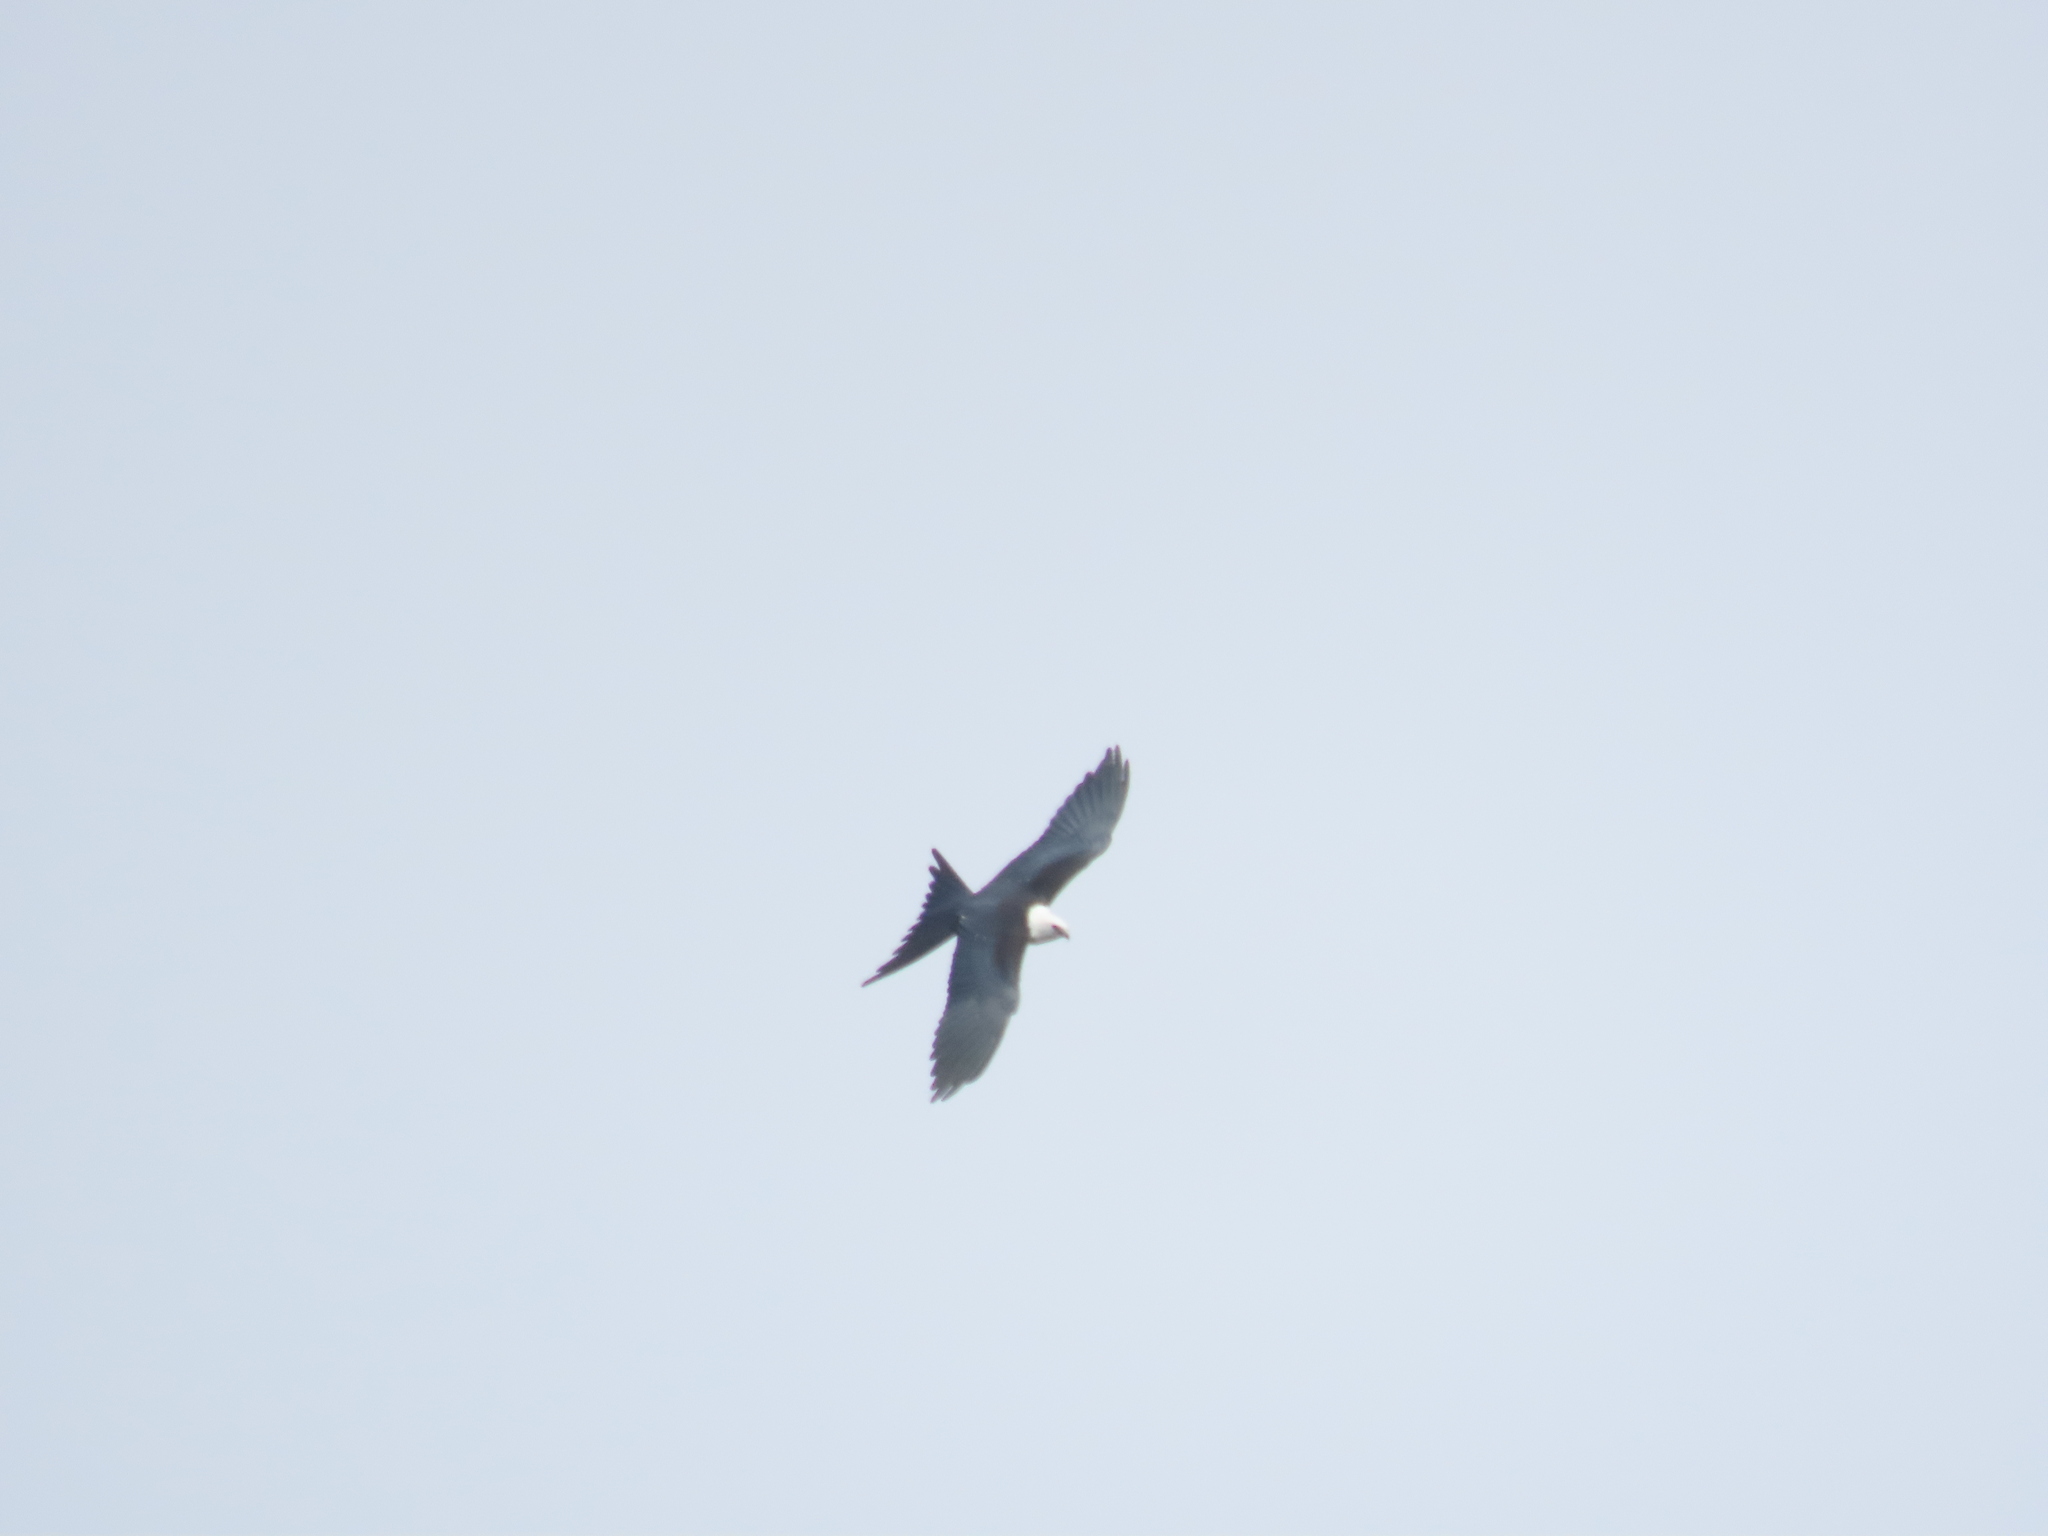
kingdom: Animalia
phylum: Chordata
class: Aves
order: Accipitriformes
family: Accipitridae
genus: Elanoides
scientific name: Elanoides forficatus
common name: Swallow-tailed kite
